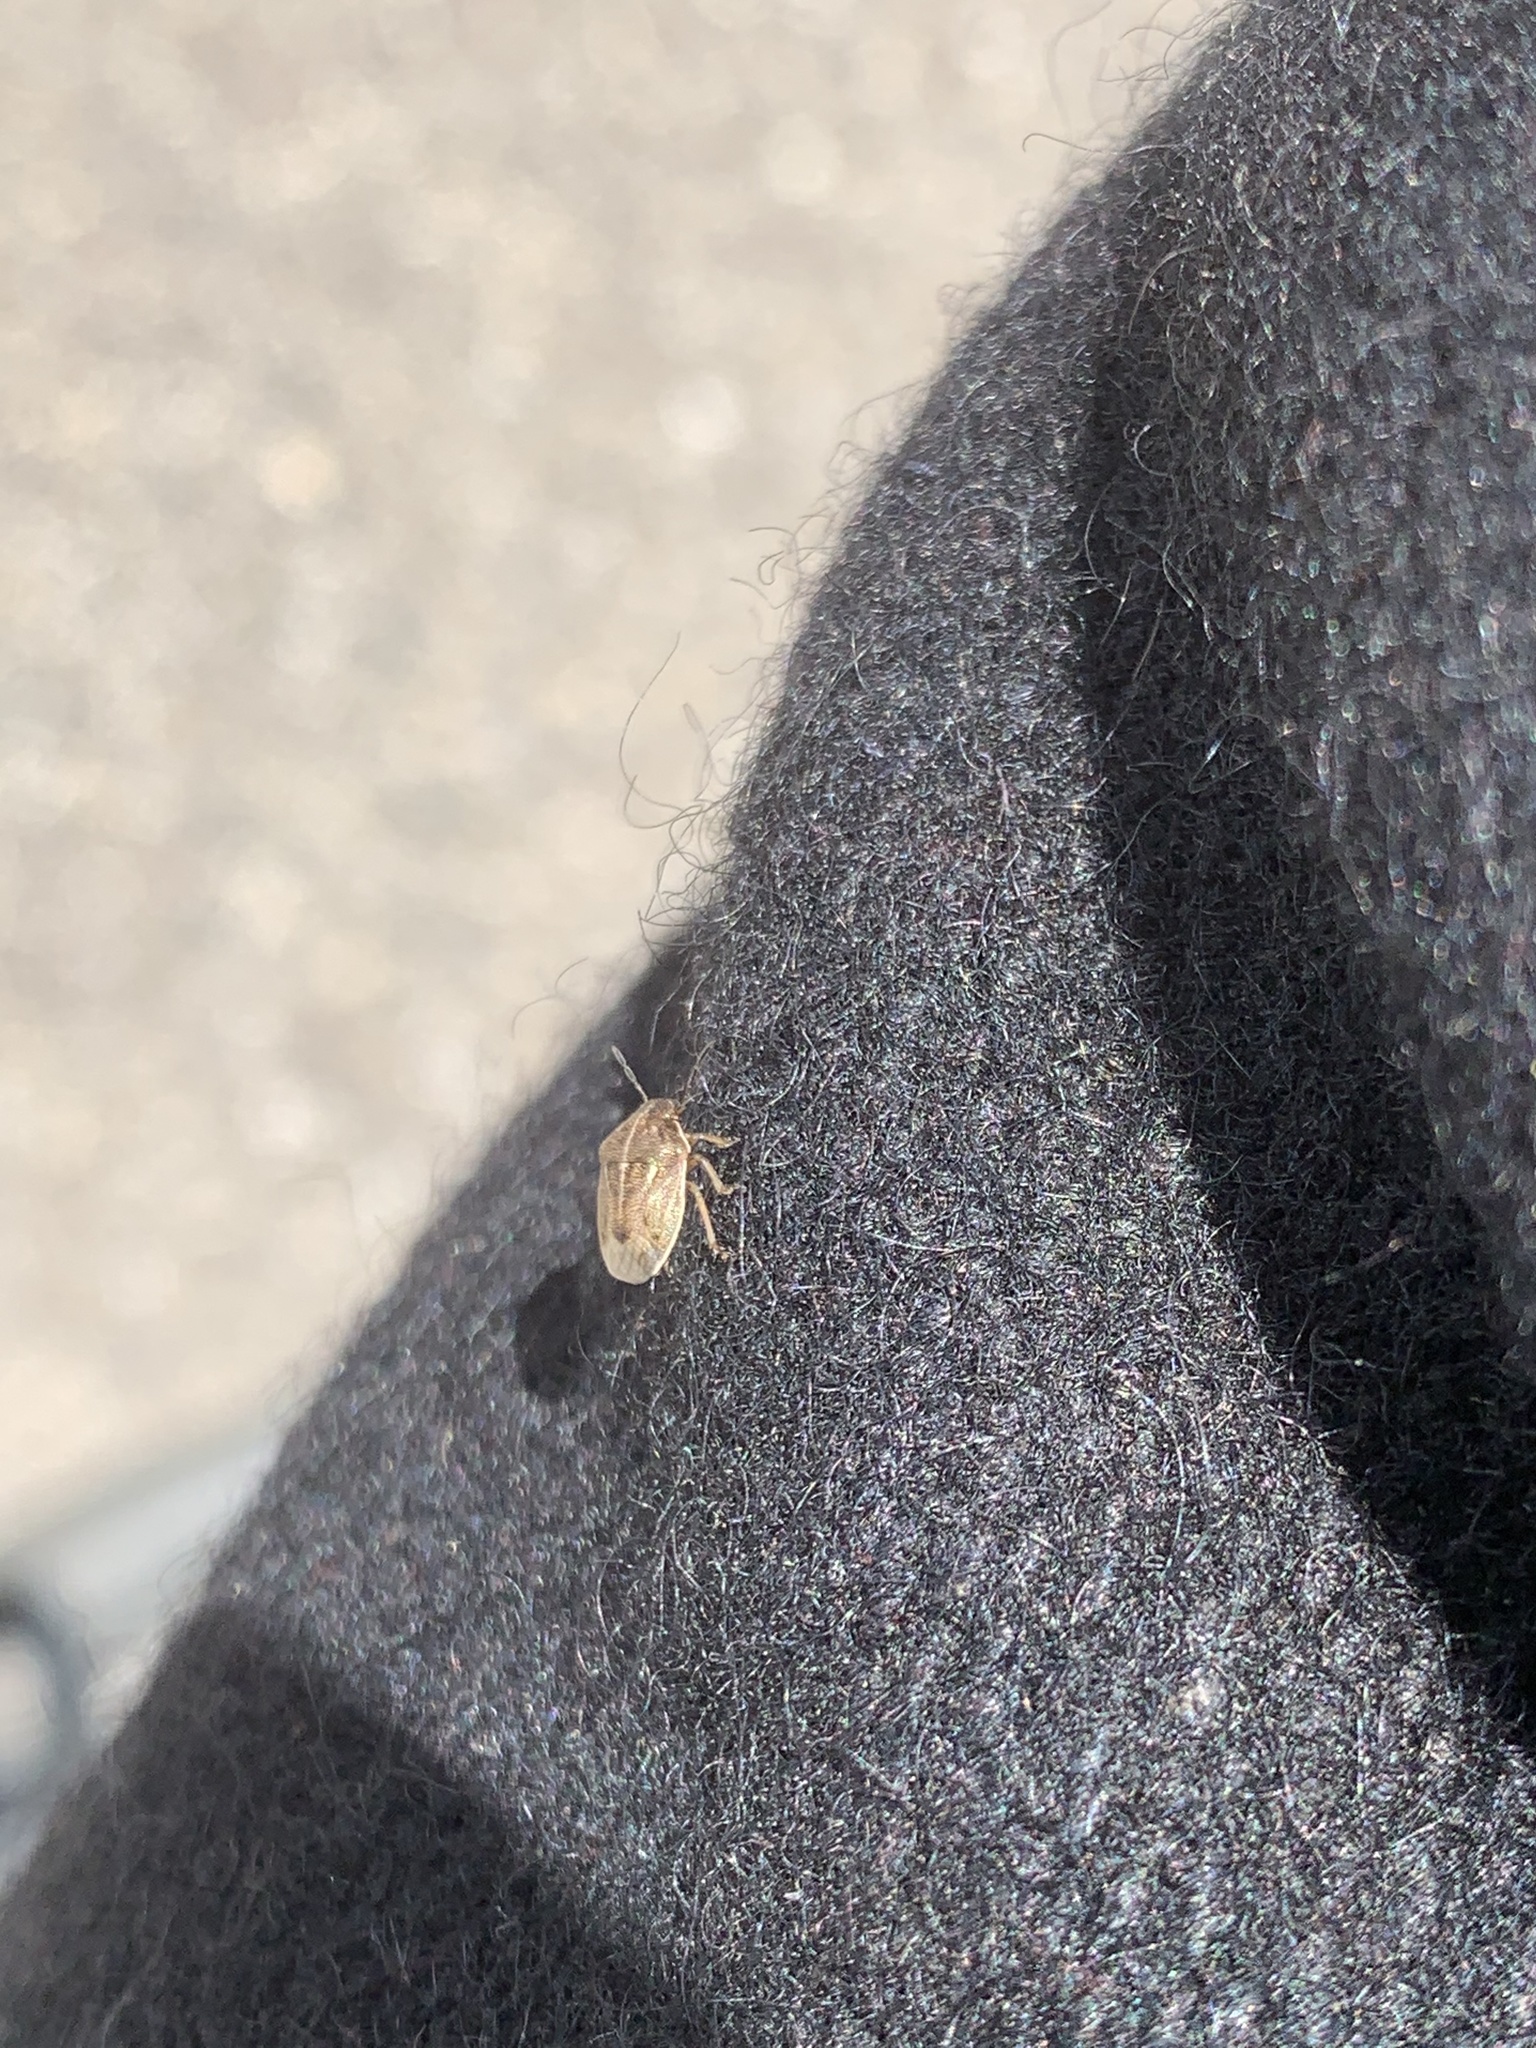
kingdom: Animalia
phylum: Arthropoda
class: Insecta
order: Hemiptera
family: Pentatomidae
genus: Neottiglossa
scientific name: Neottiglossa undata
